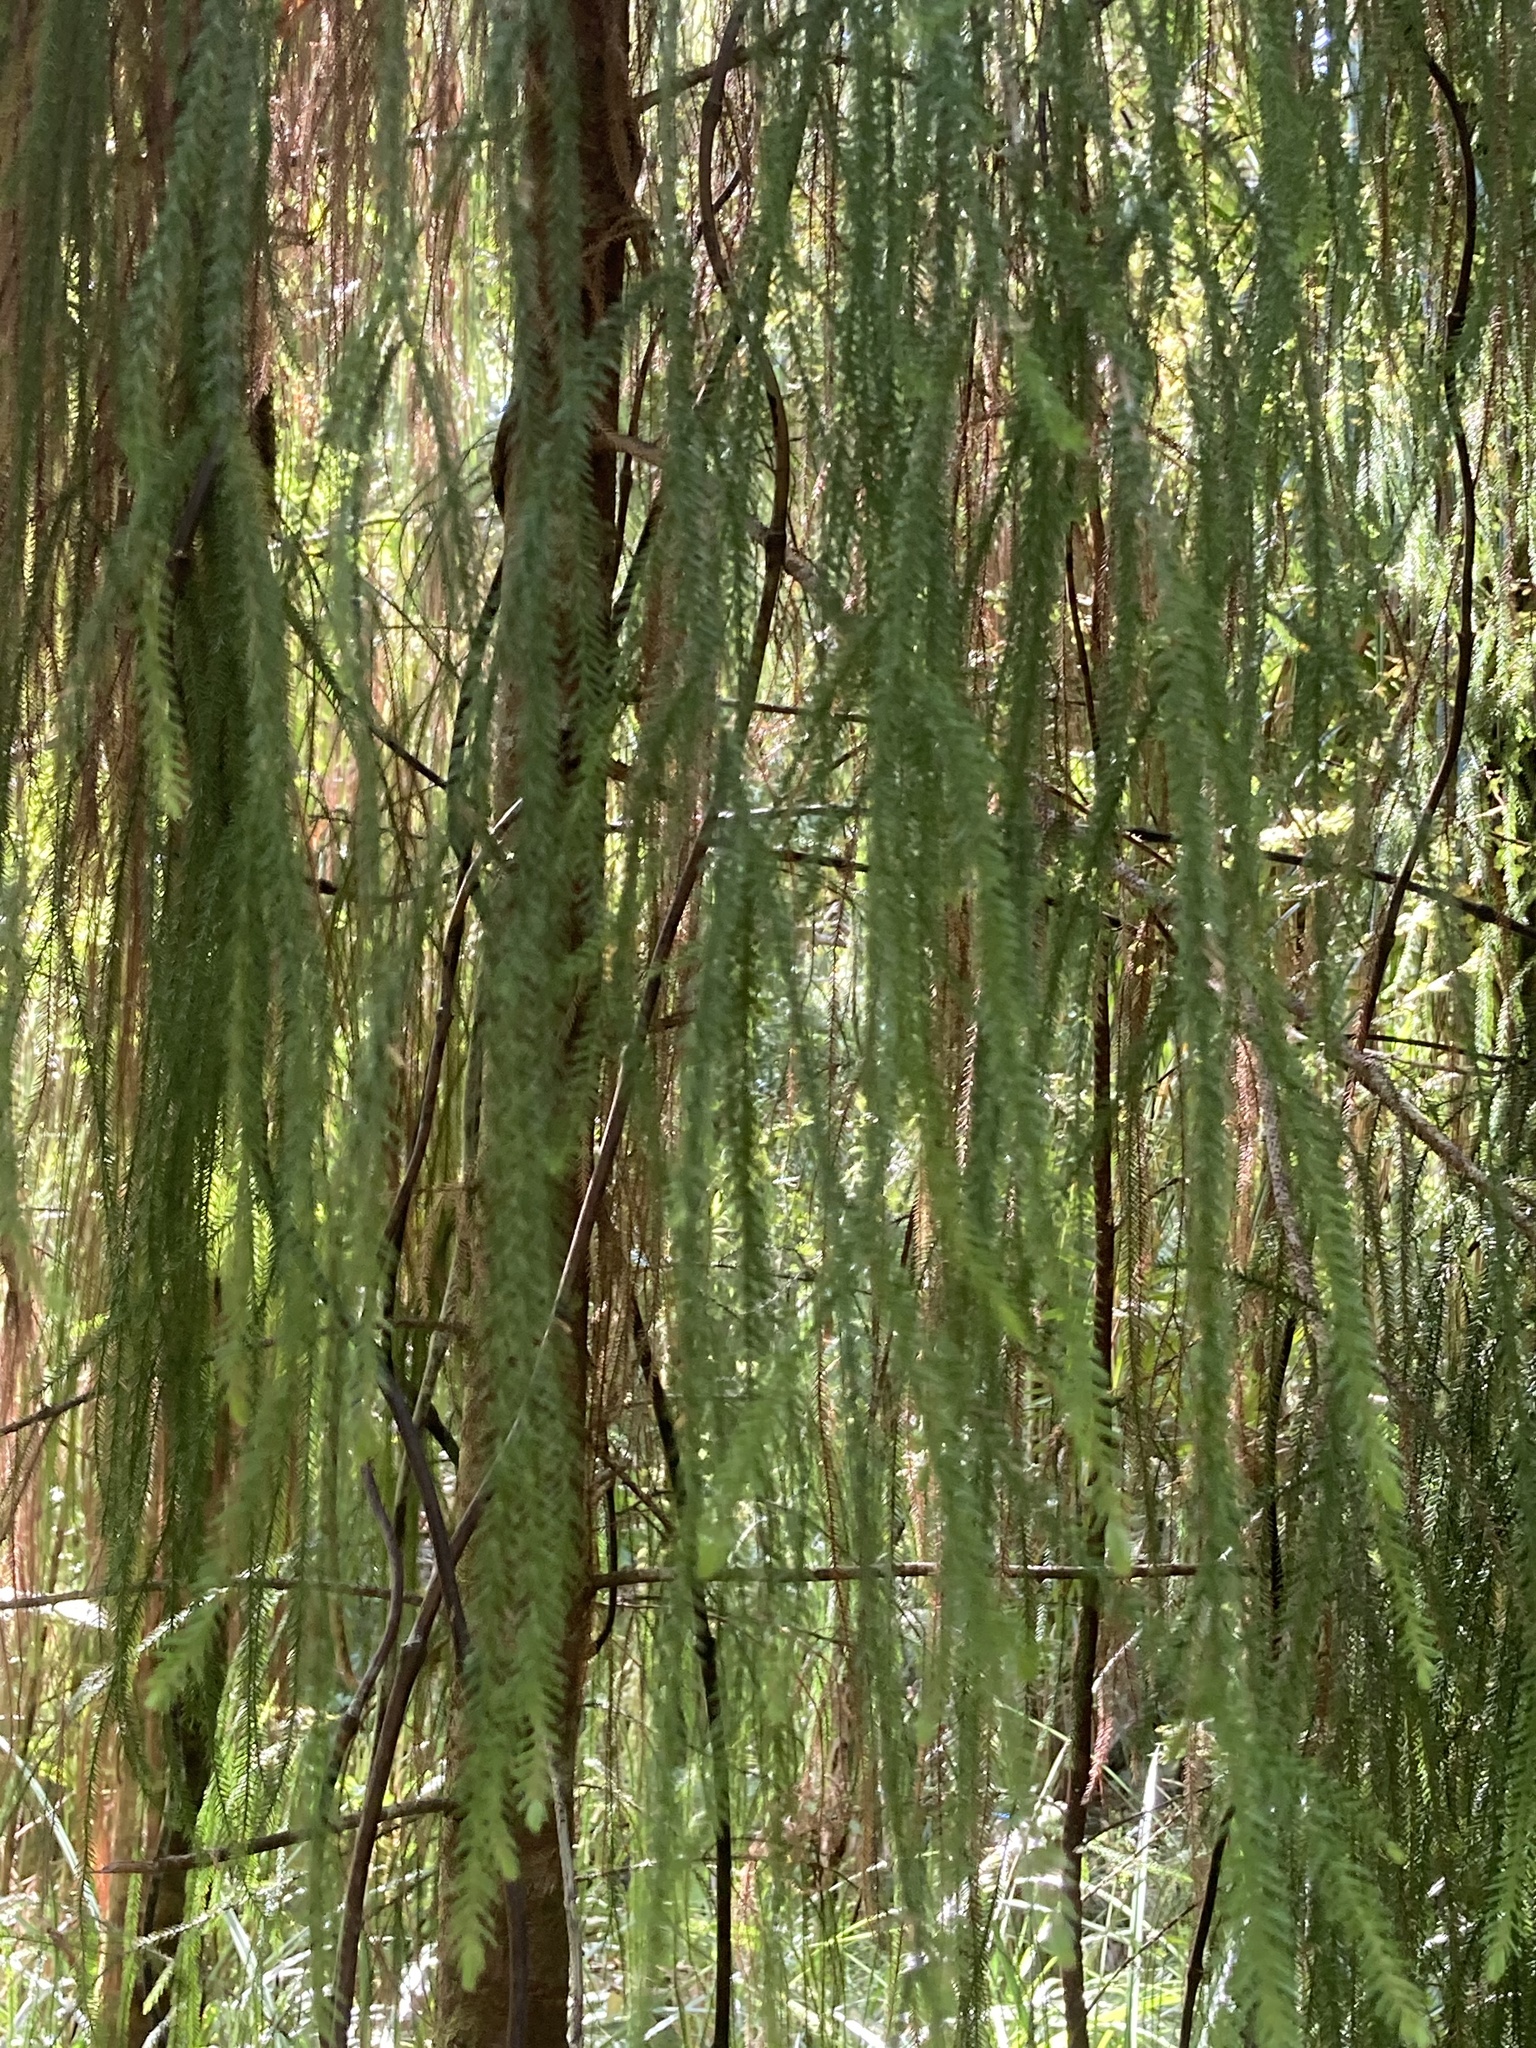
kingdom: Plantae
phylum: Tracheophyta
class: Pinopsida
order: Pinales
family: Podocarpaceae
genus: Dacrydium
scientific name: Dacrydium cupressinum
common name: Red pine
